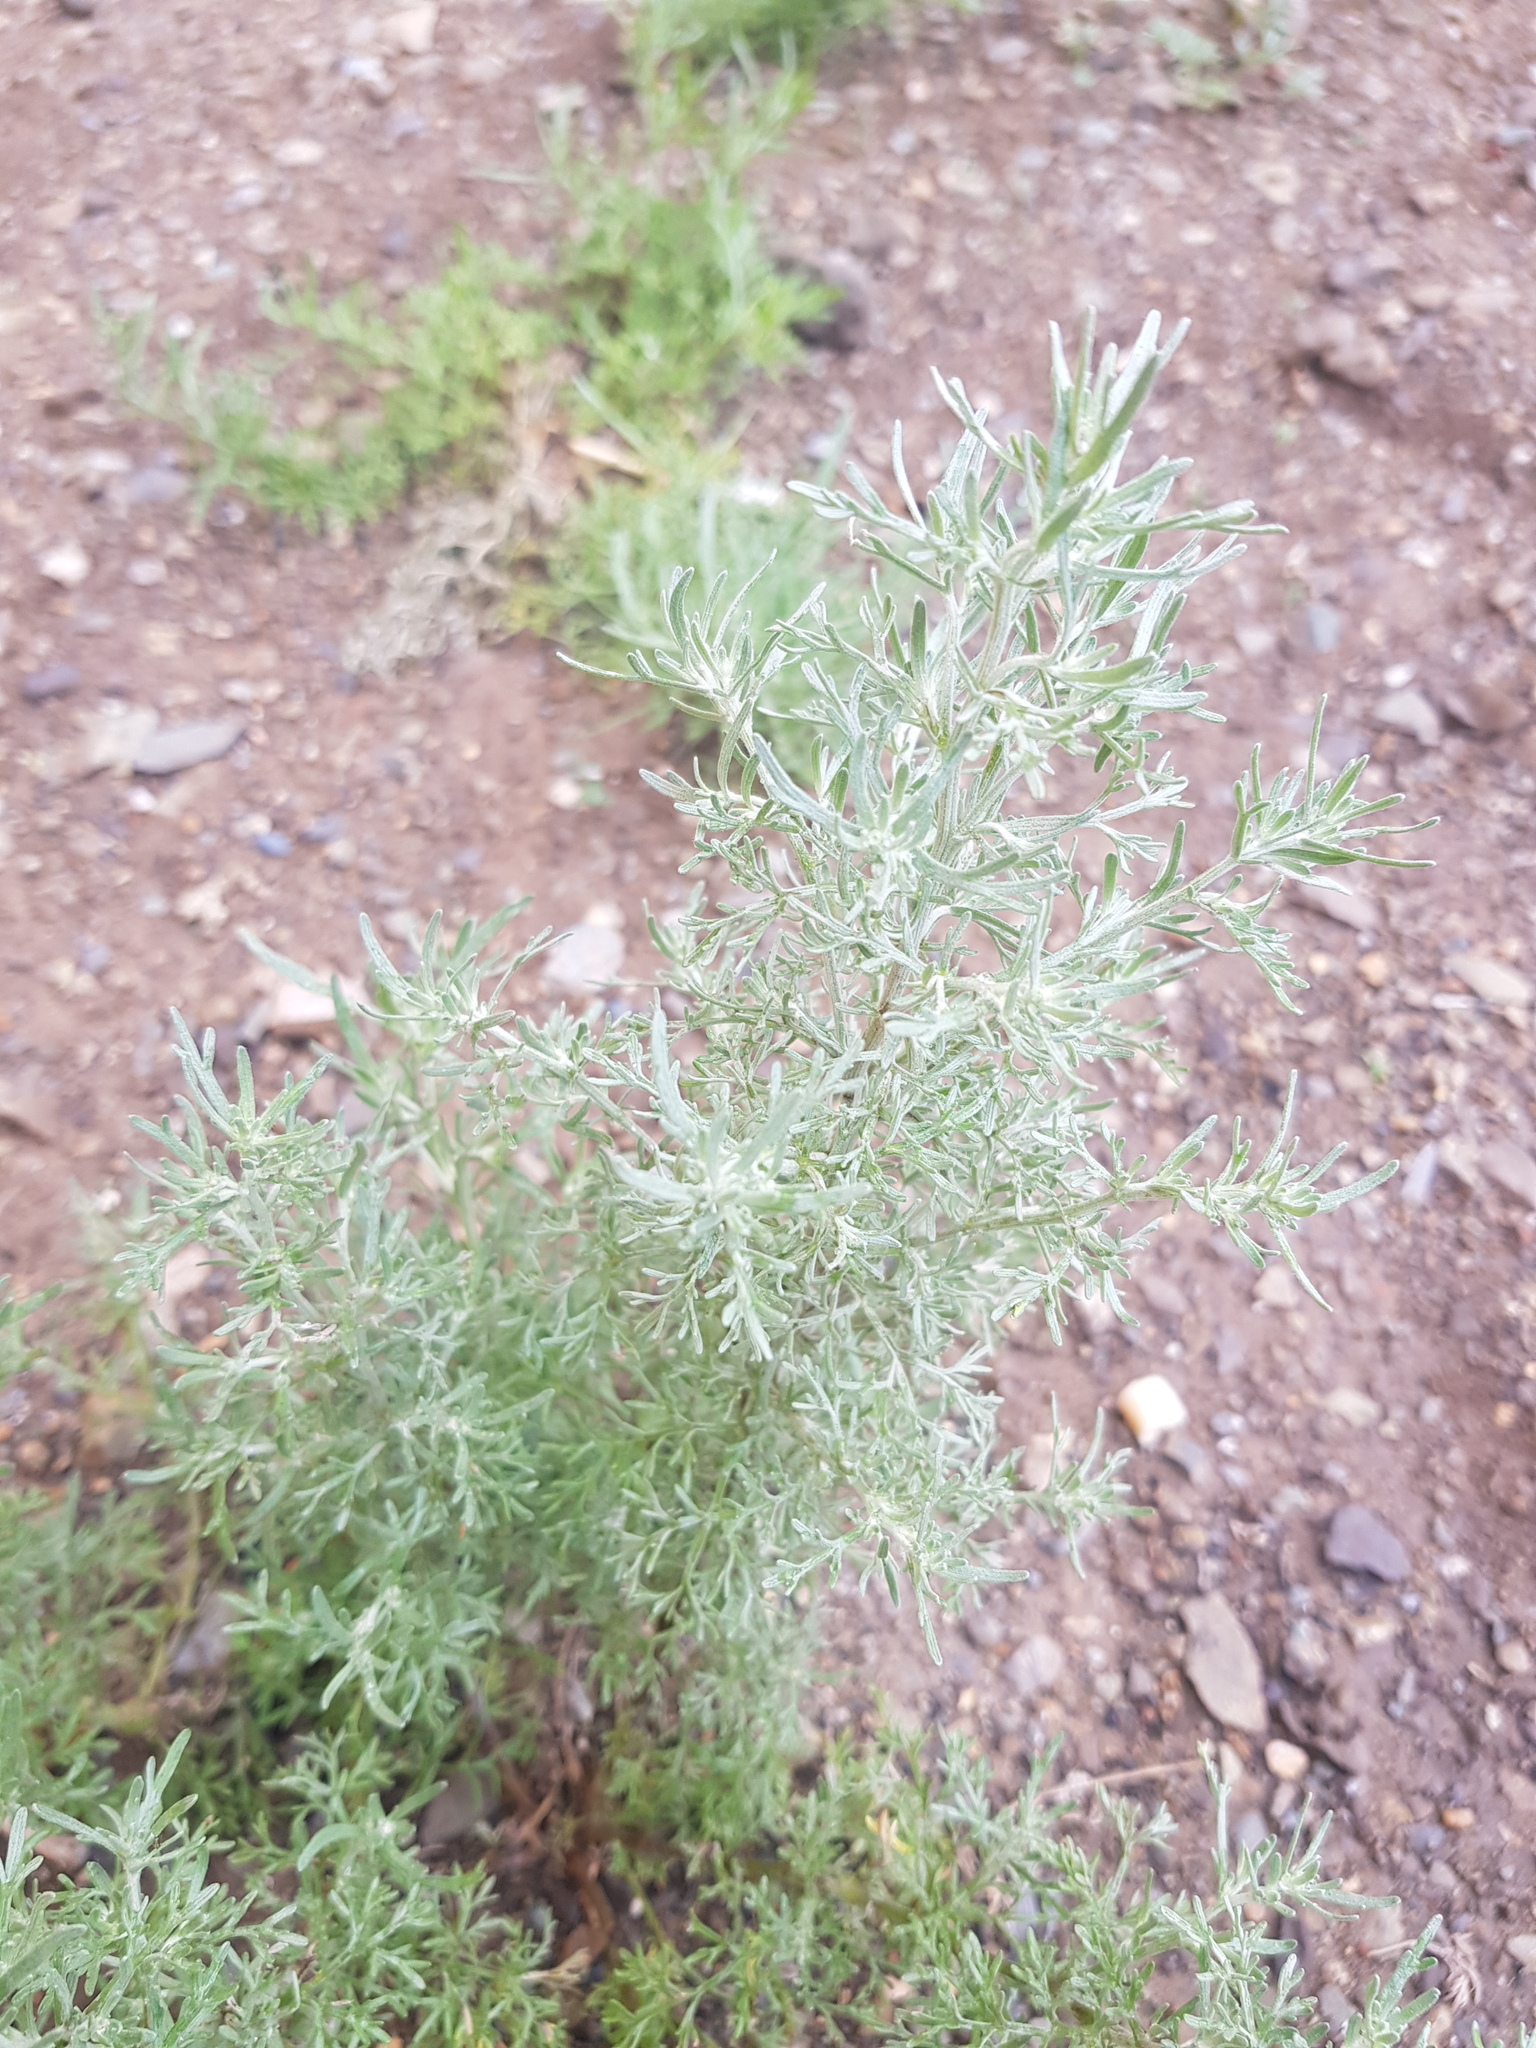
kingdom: Plantae
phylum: Tracheophyta
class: Magnoliopsida
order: Asterales
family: Asteraceae
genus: Artemisia
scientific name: Artemisia sieversiana
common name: Sieversian wormwood
